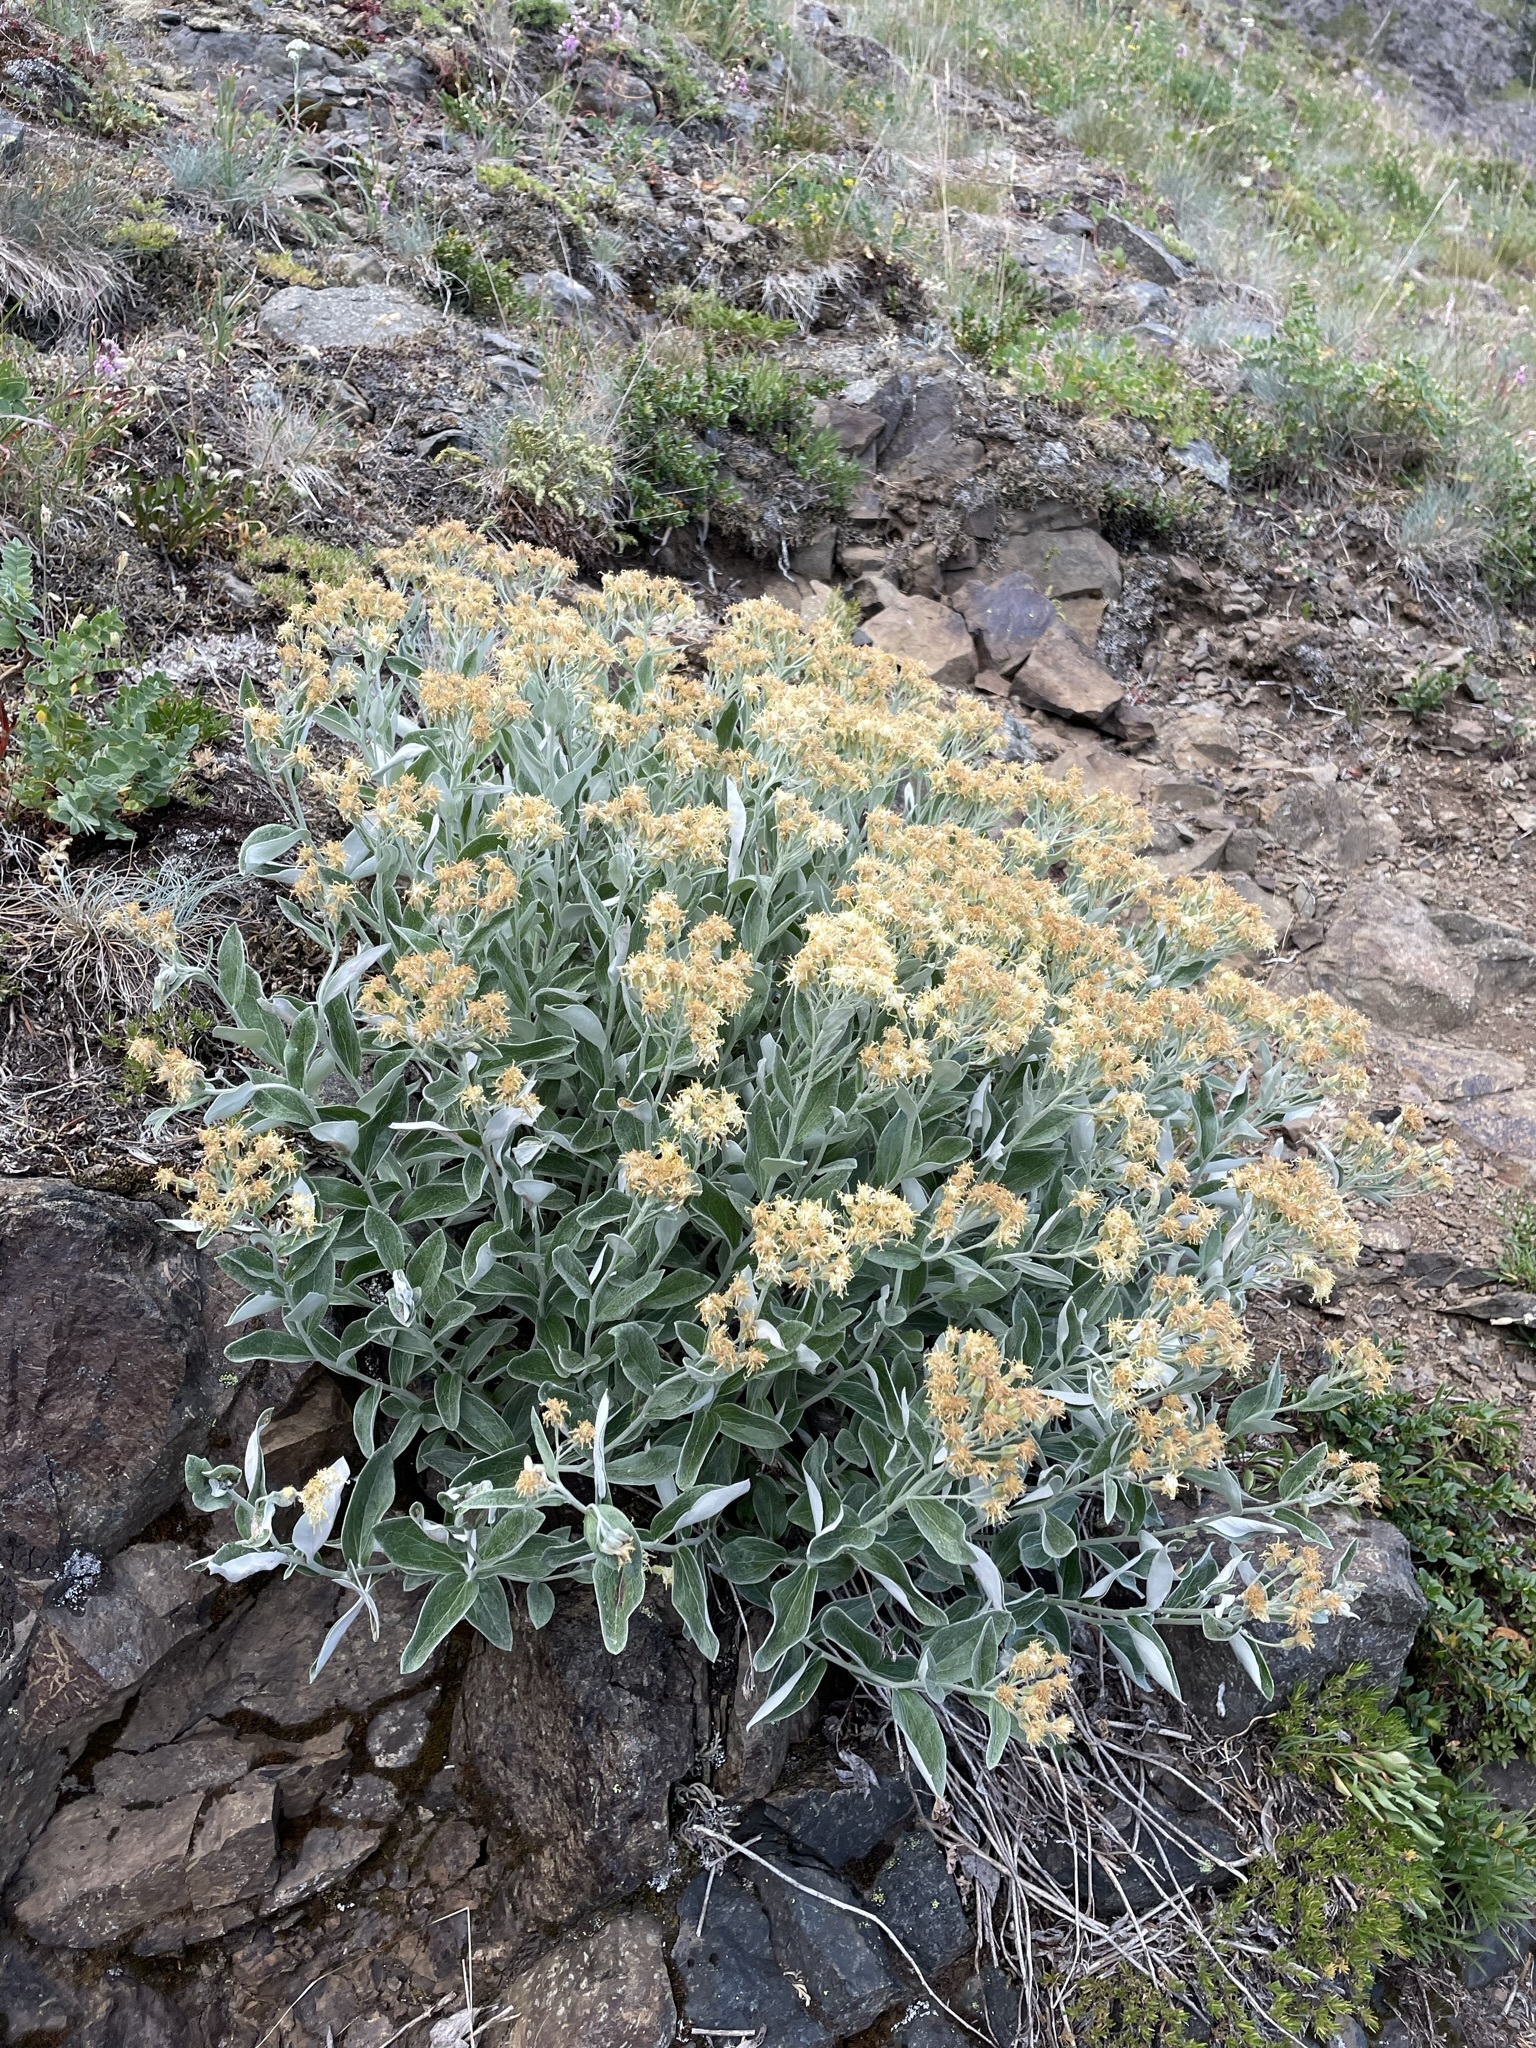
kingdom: Plantae
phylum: Tracheophyta
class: Magnoliopsida
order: Asterales
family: Asteraceae
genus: Luina
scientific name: Luina hypoleuca
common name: Little-leaved luina
